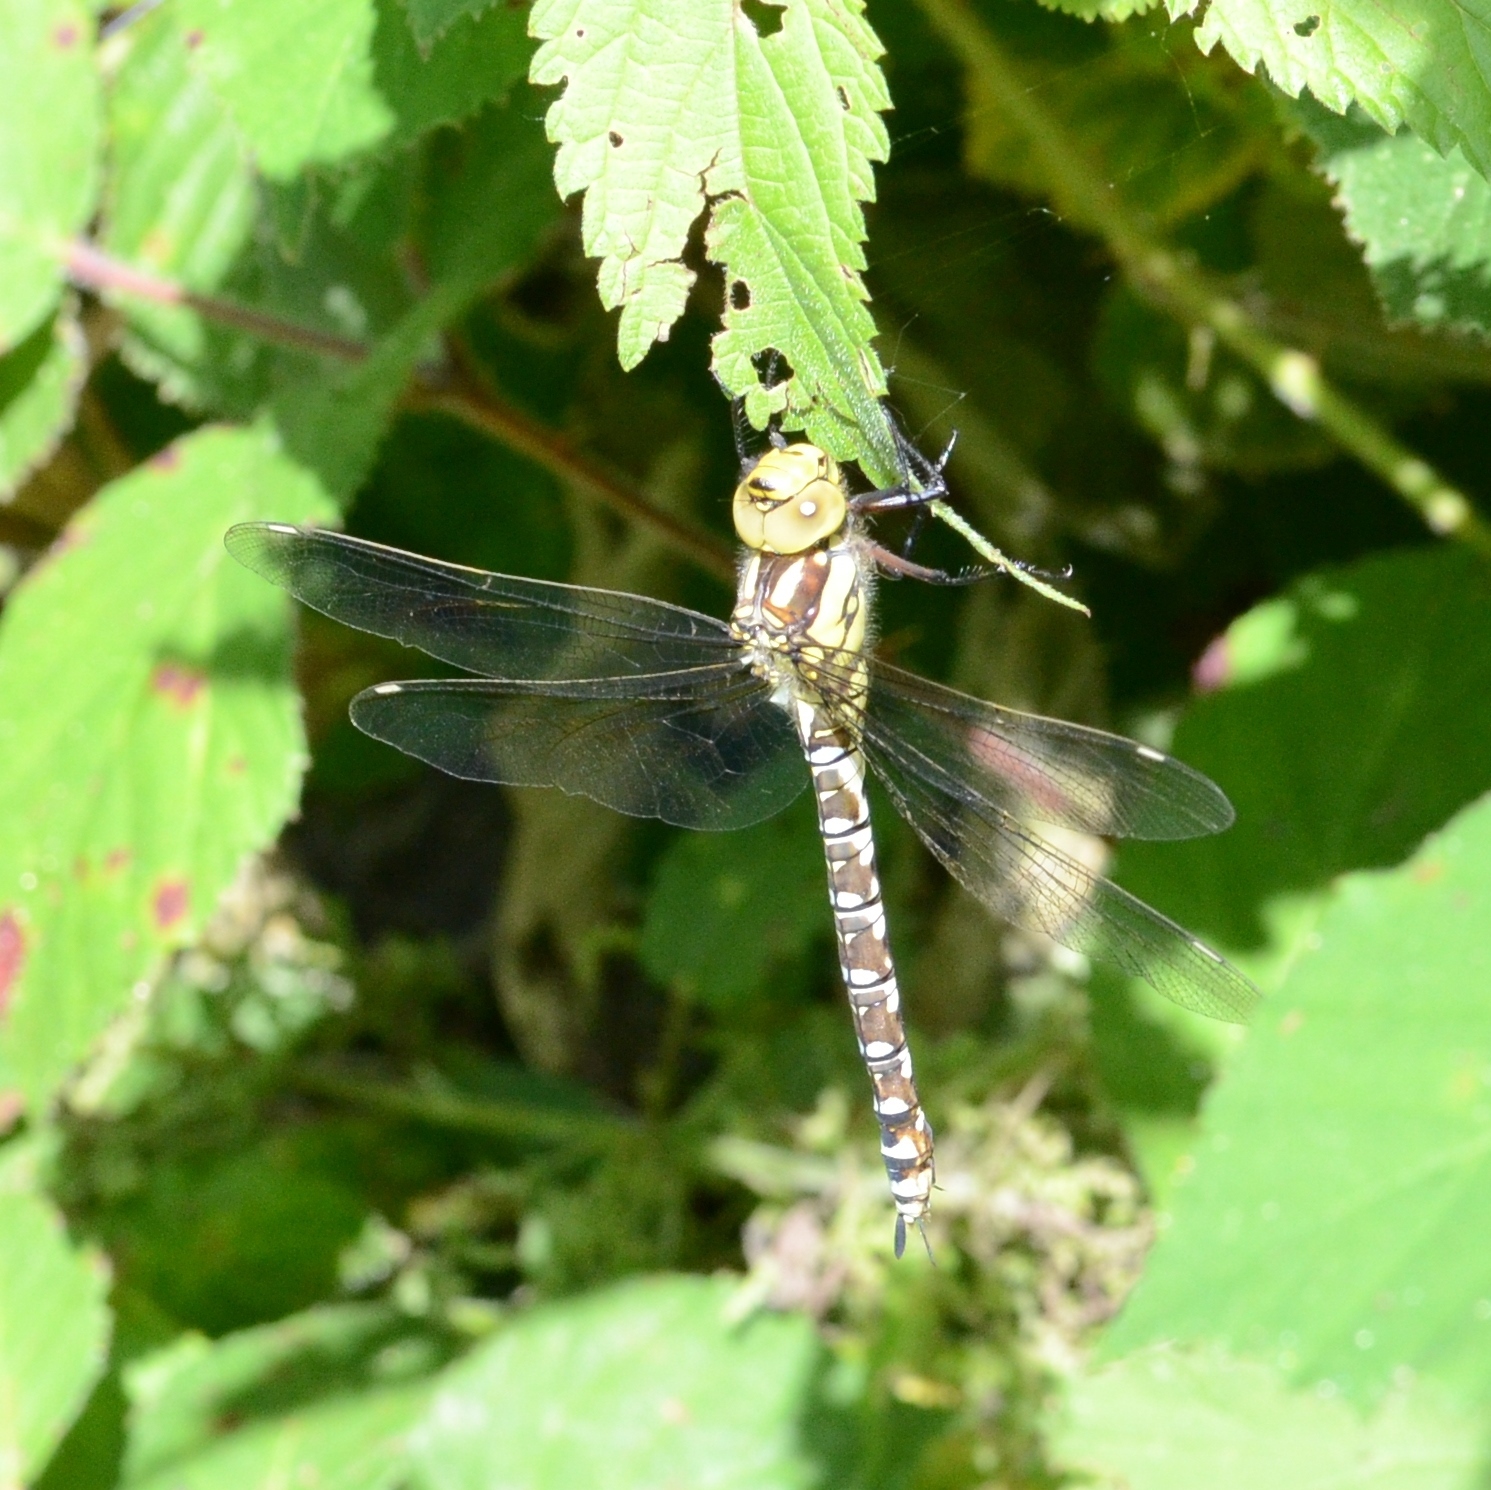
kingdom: Animalia
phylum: Arthropoda
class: Insecta
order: Odonata
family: Aeshnidae
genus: Aeshna
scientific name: Aeshna cyanea
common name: Southern hawker
